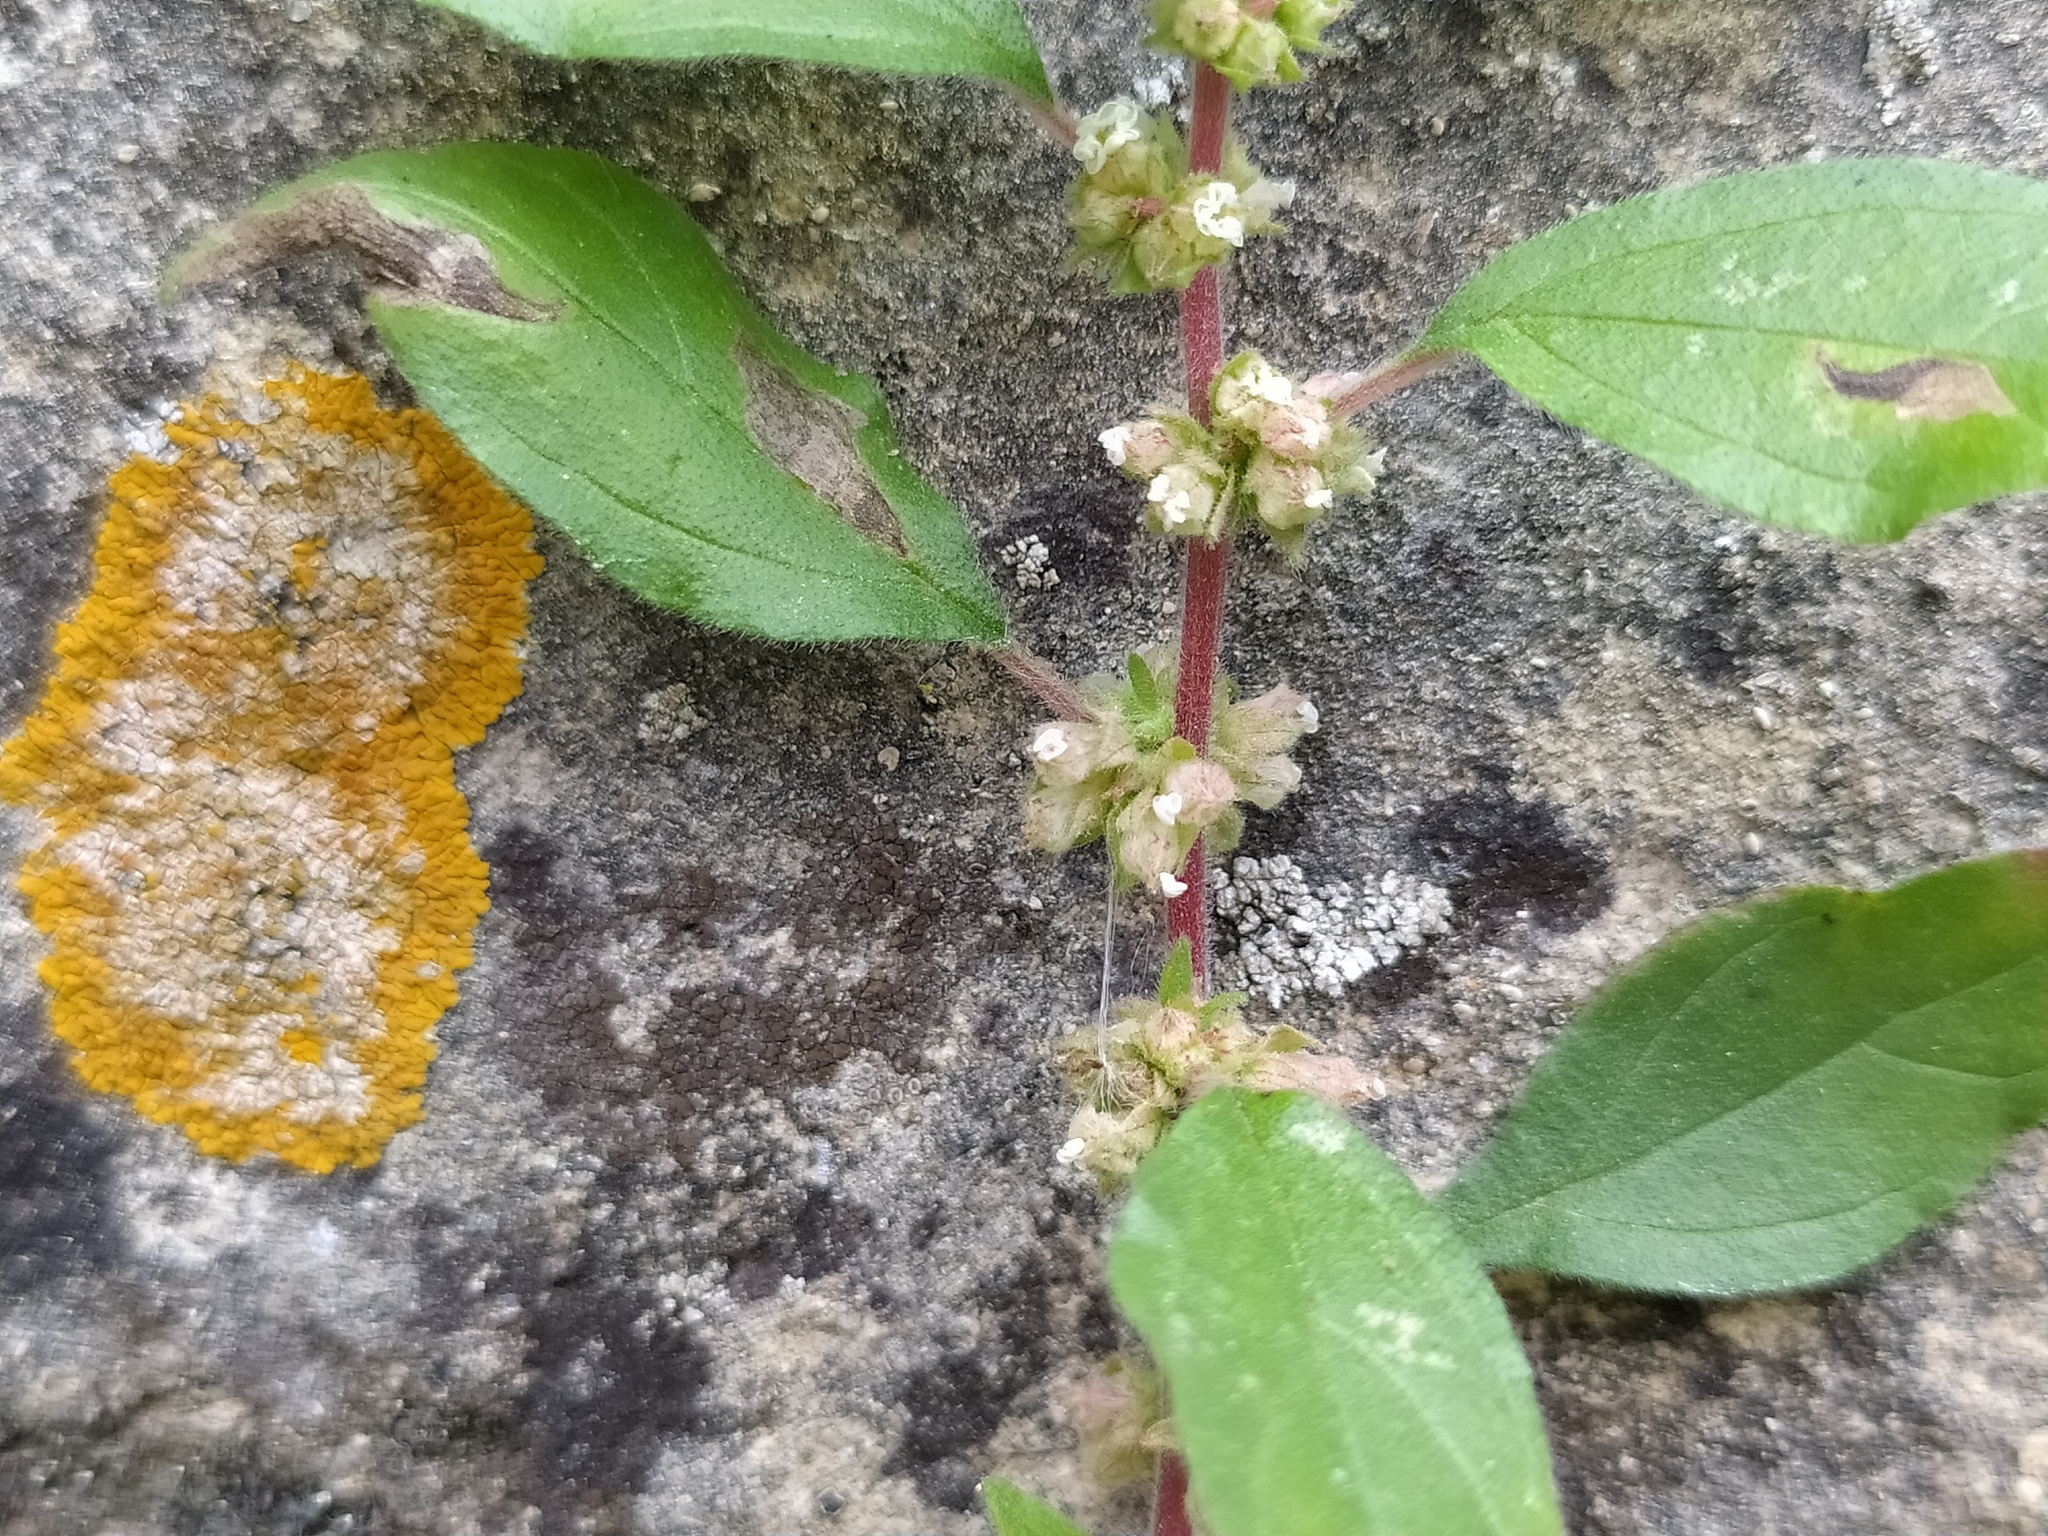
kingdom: Plantae
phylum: Tracheophyta
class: Magnoliopsida
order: Rosales
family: Urticaceae
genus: Parietaria
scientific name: Parietaria judaica
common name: Pellitory-of-the-wall
